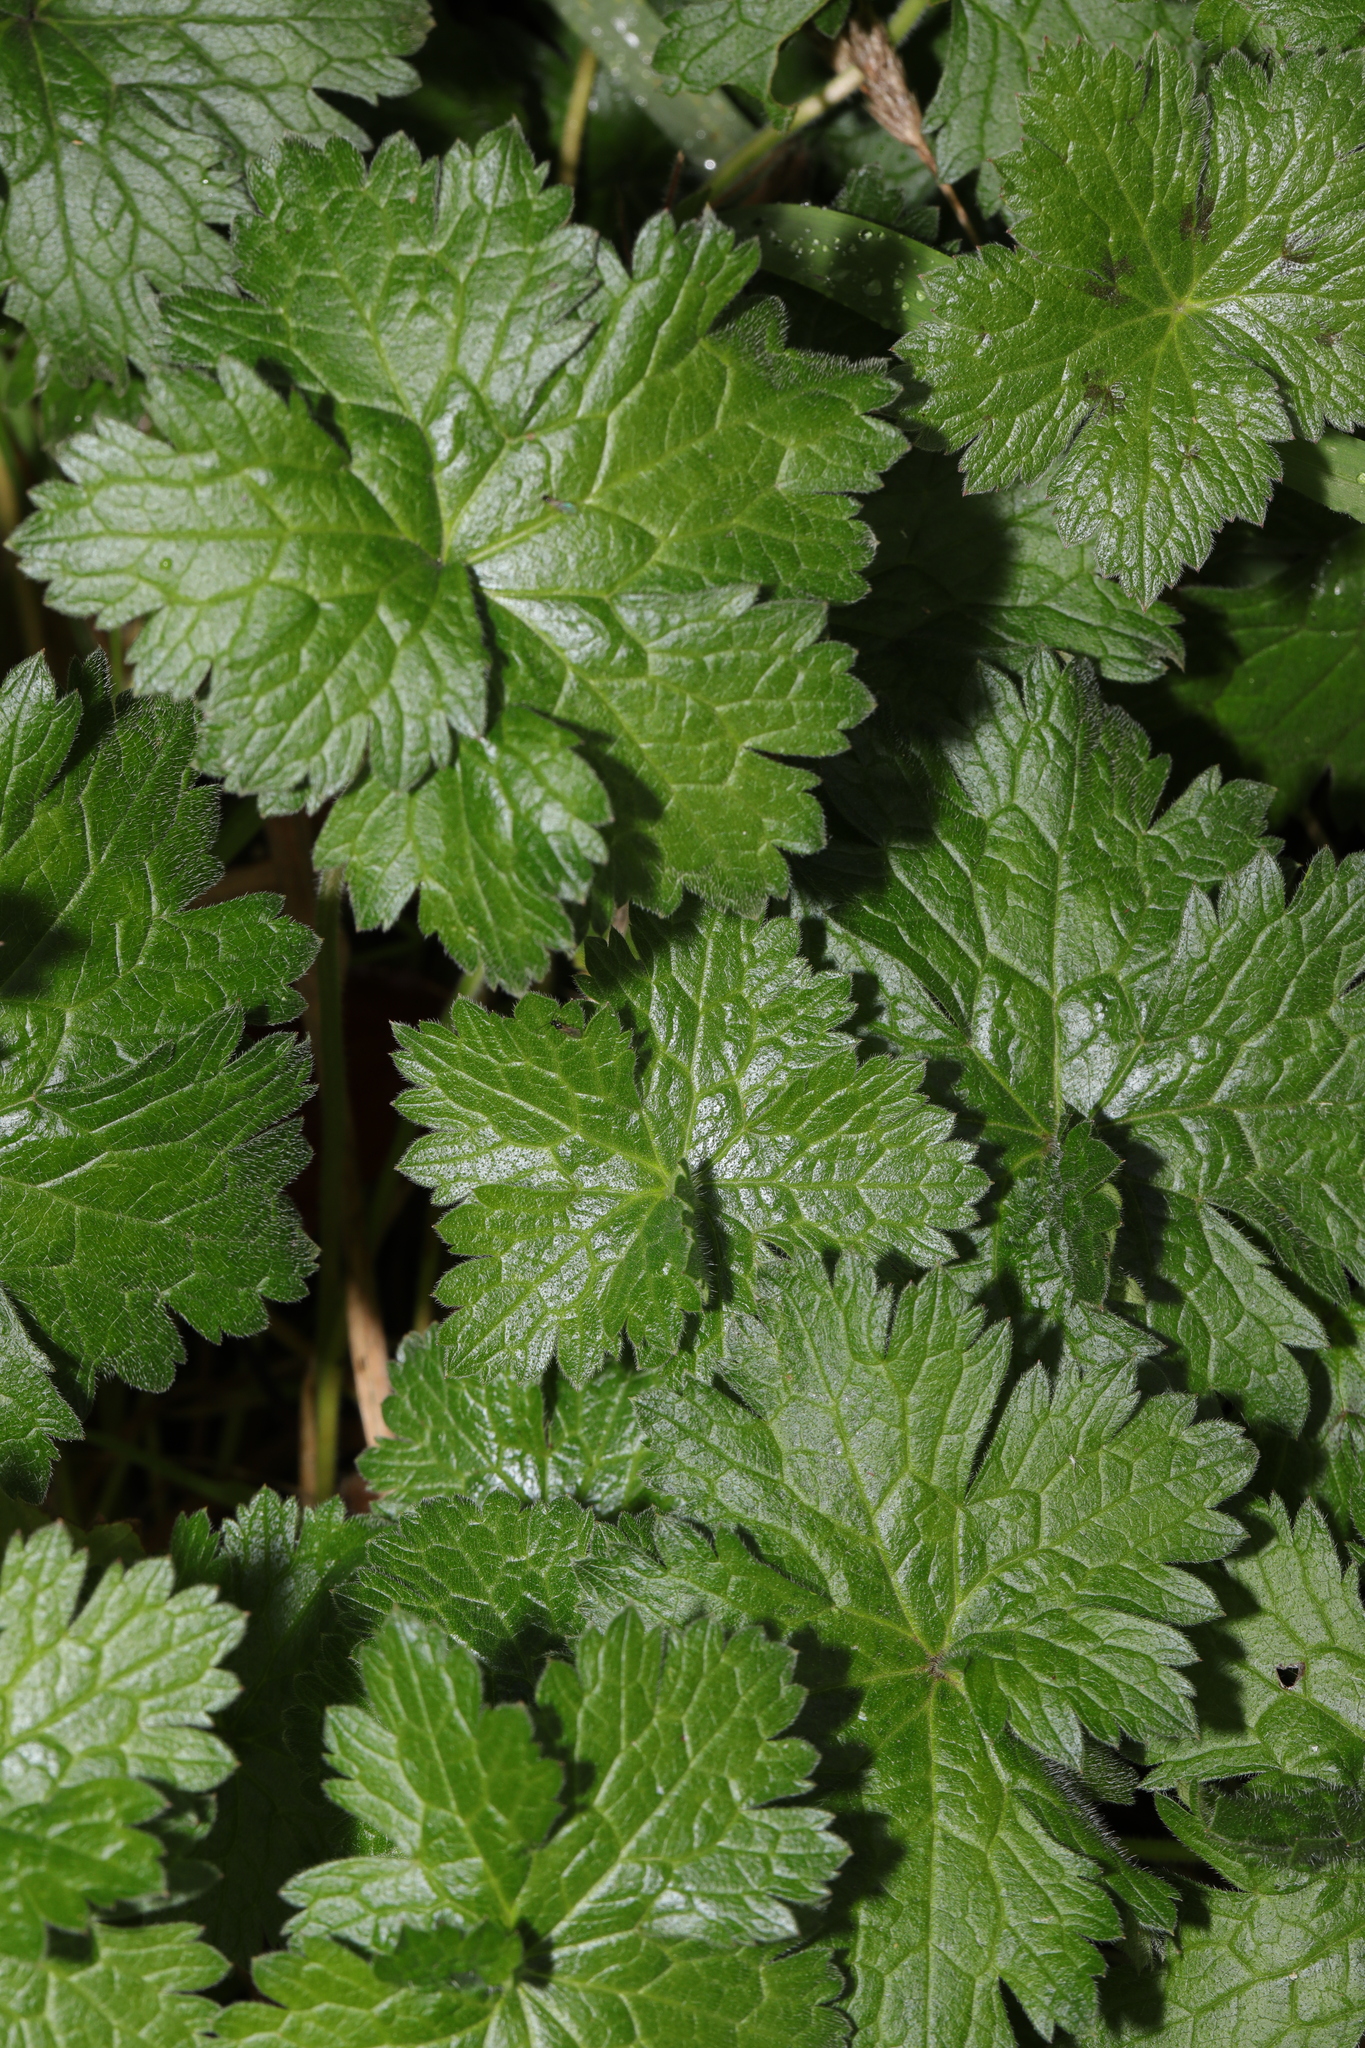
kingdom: Plantae
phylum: Tracheophyta
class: Magnoliopsida
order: Geraniales
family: Geraniaceae
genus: Geranium
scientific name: Geranium oxonianum
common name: Druce's crane's-bill
